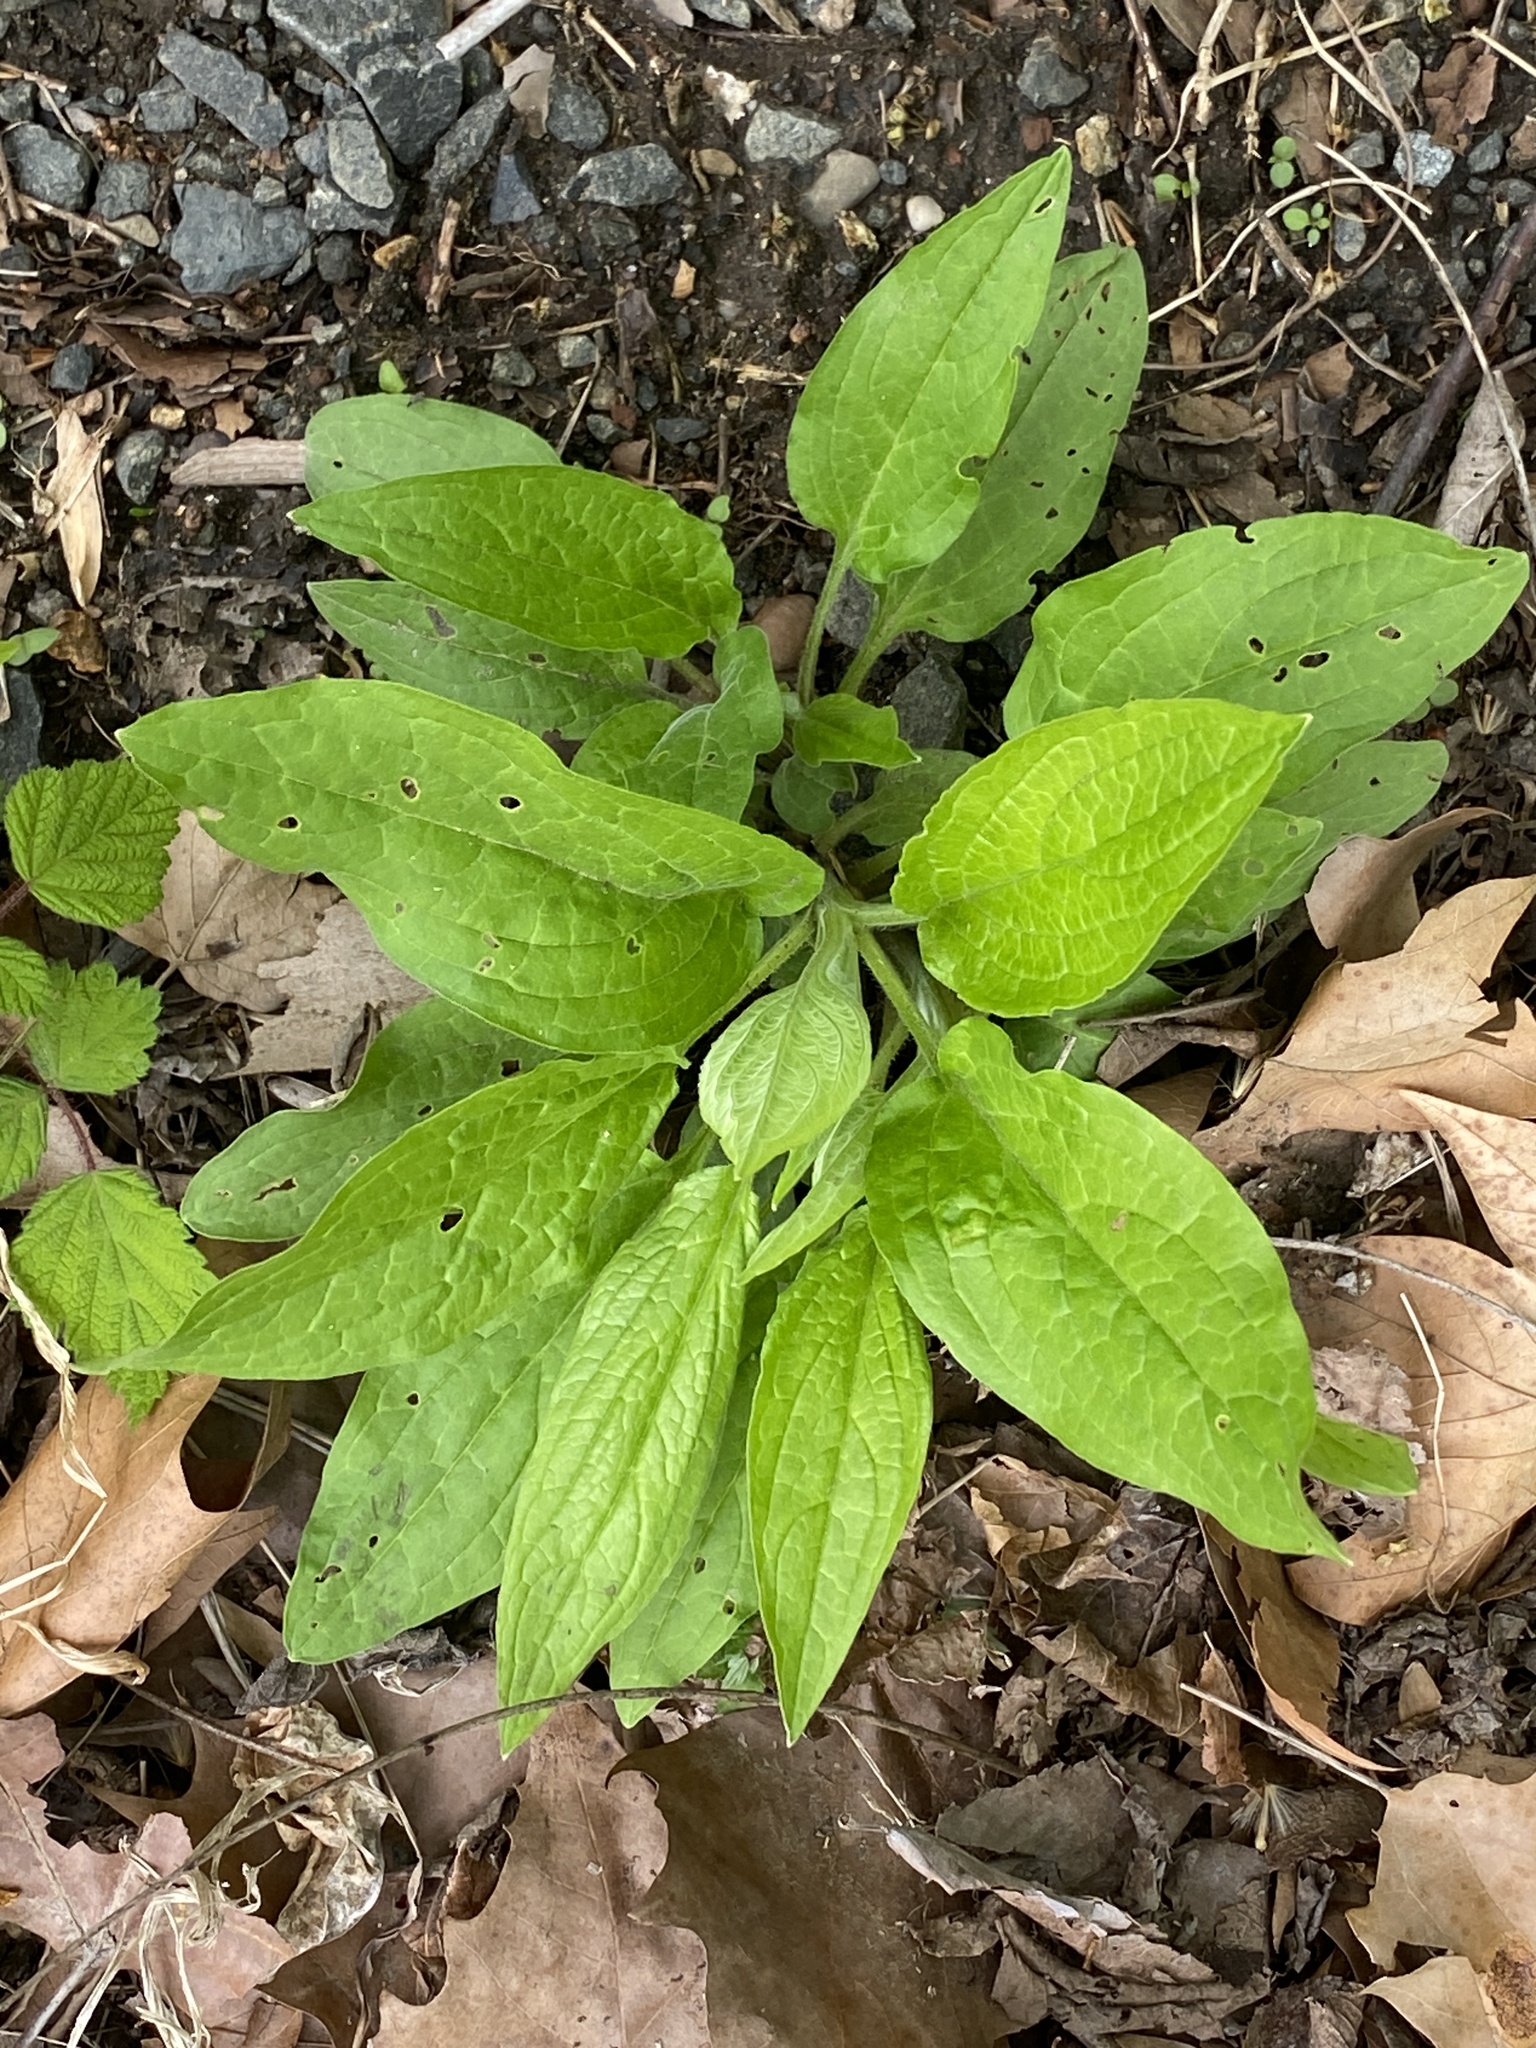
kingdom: Plantae
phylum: Tracheophyta
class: Magnoliopsida
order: Boraginales
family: Boraginaceae
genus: Hackelia
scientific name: Hackelia virginiana
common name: Beggar's-lice
